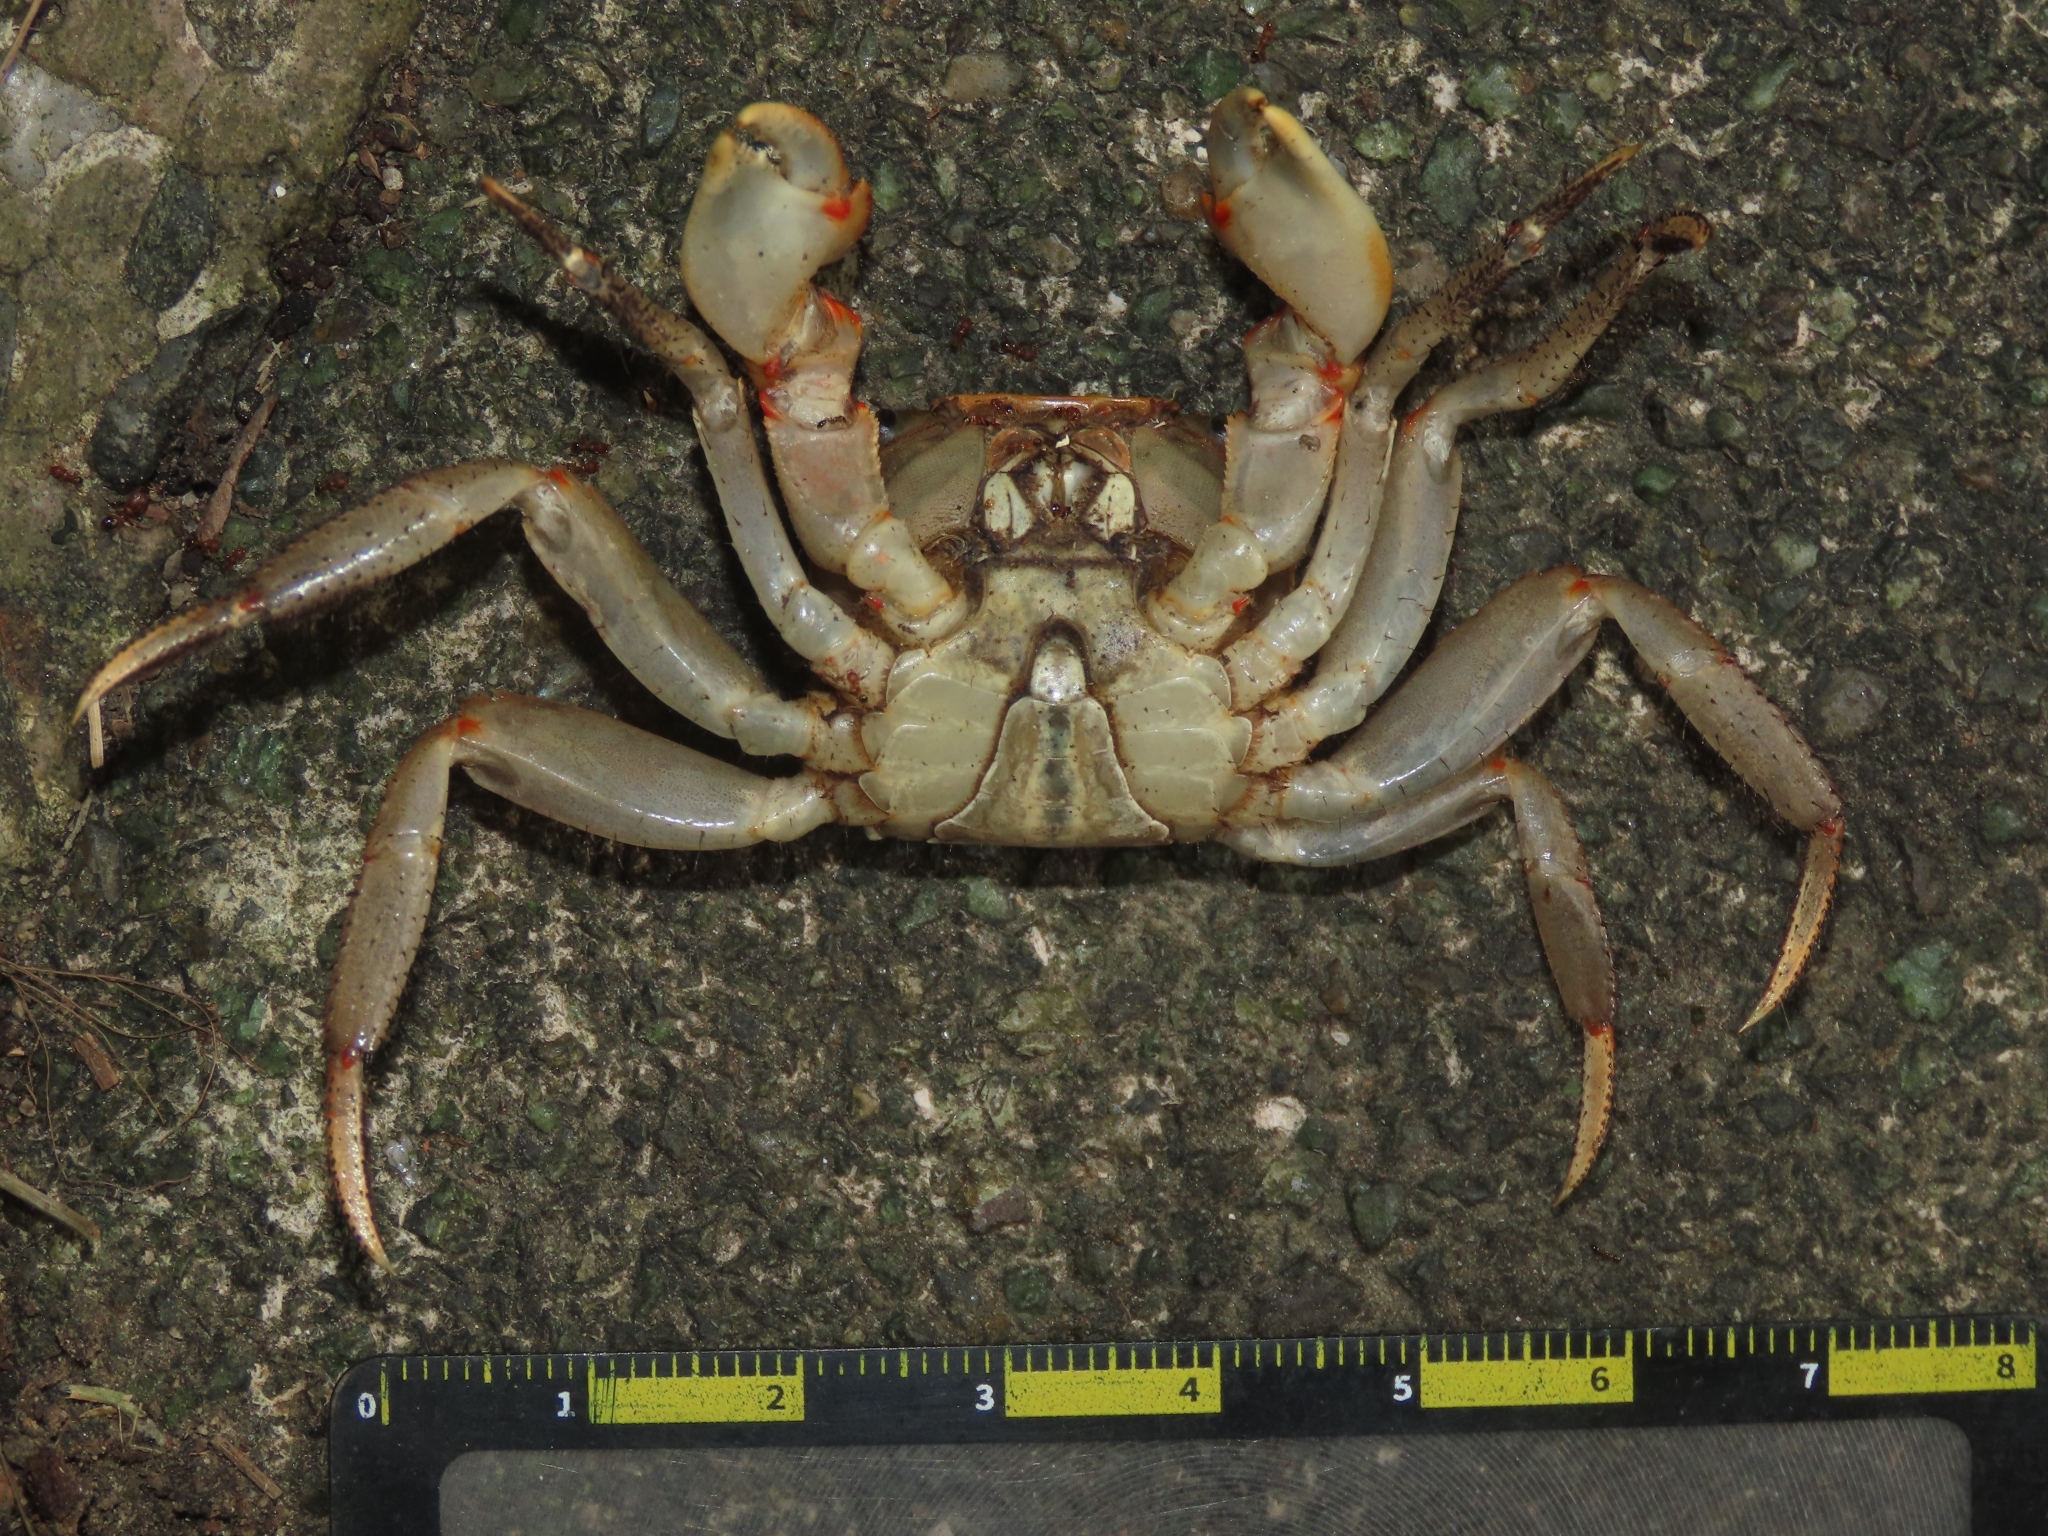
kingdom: Animalia
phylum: Arthropoda
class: Malacostraca
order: Decapoda
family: Sesarmidae
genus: Chiromantes
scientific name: Chiromantes haematocheir
